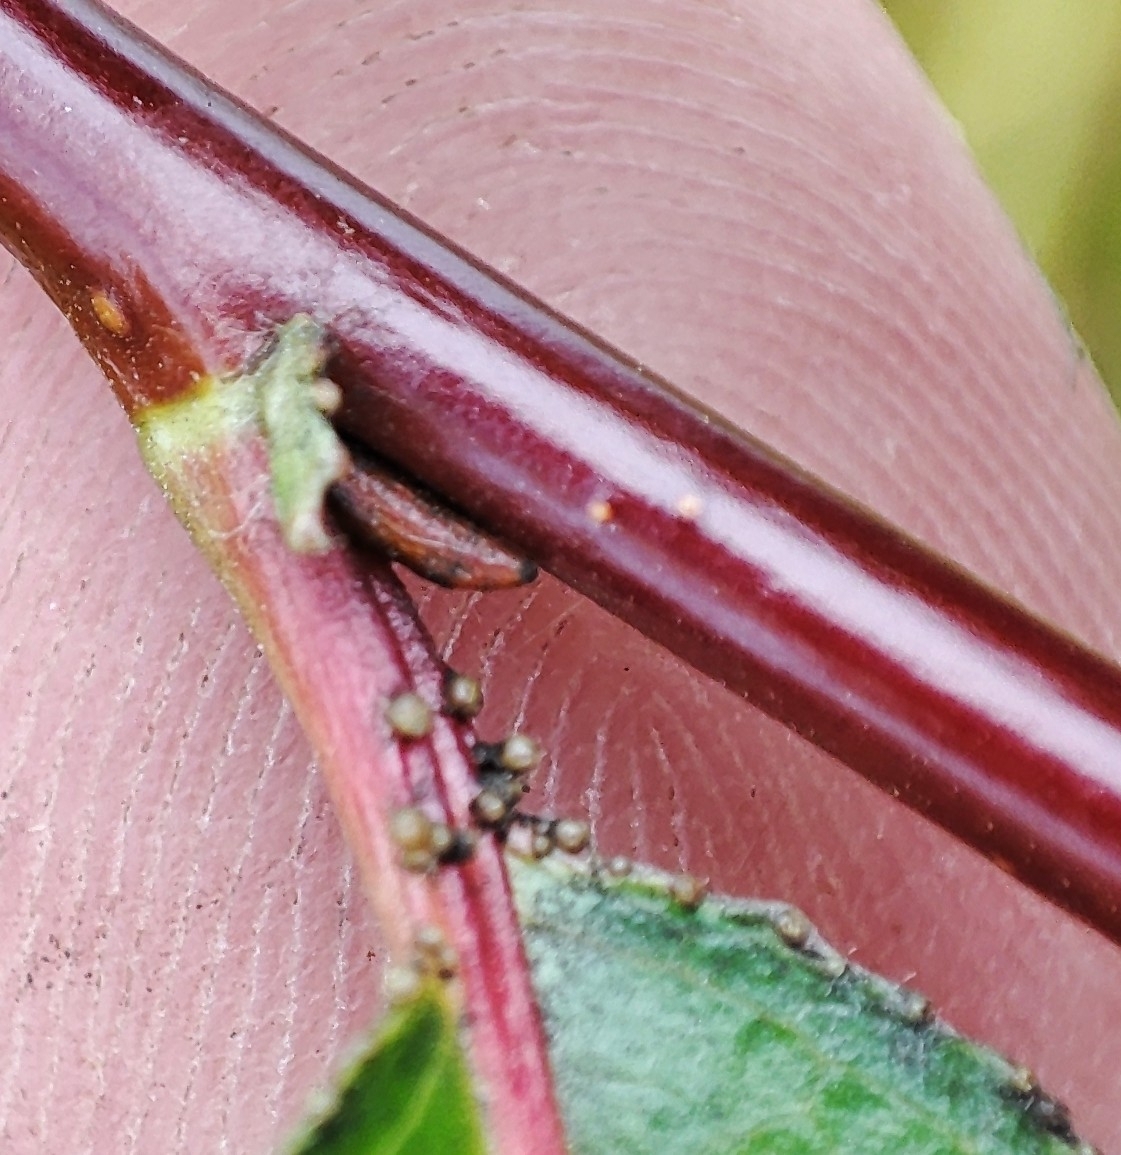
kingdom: Plantae
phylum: Tracheophyta
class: Magnoliopsida
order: Malpighiales
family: Salicaceae
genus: Salix
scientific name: Salix pentandra
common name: Bay willow
